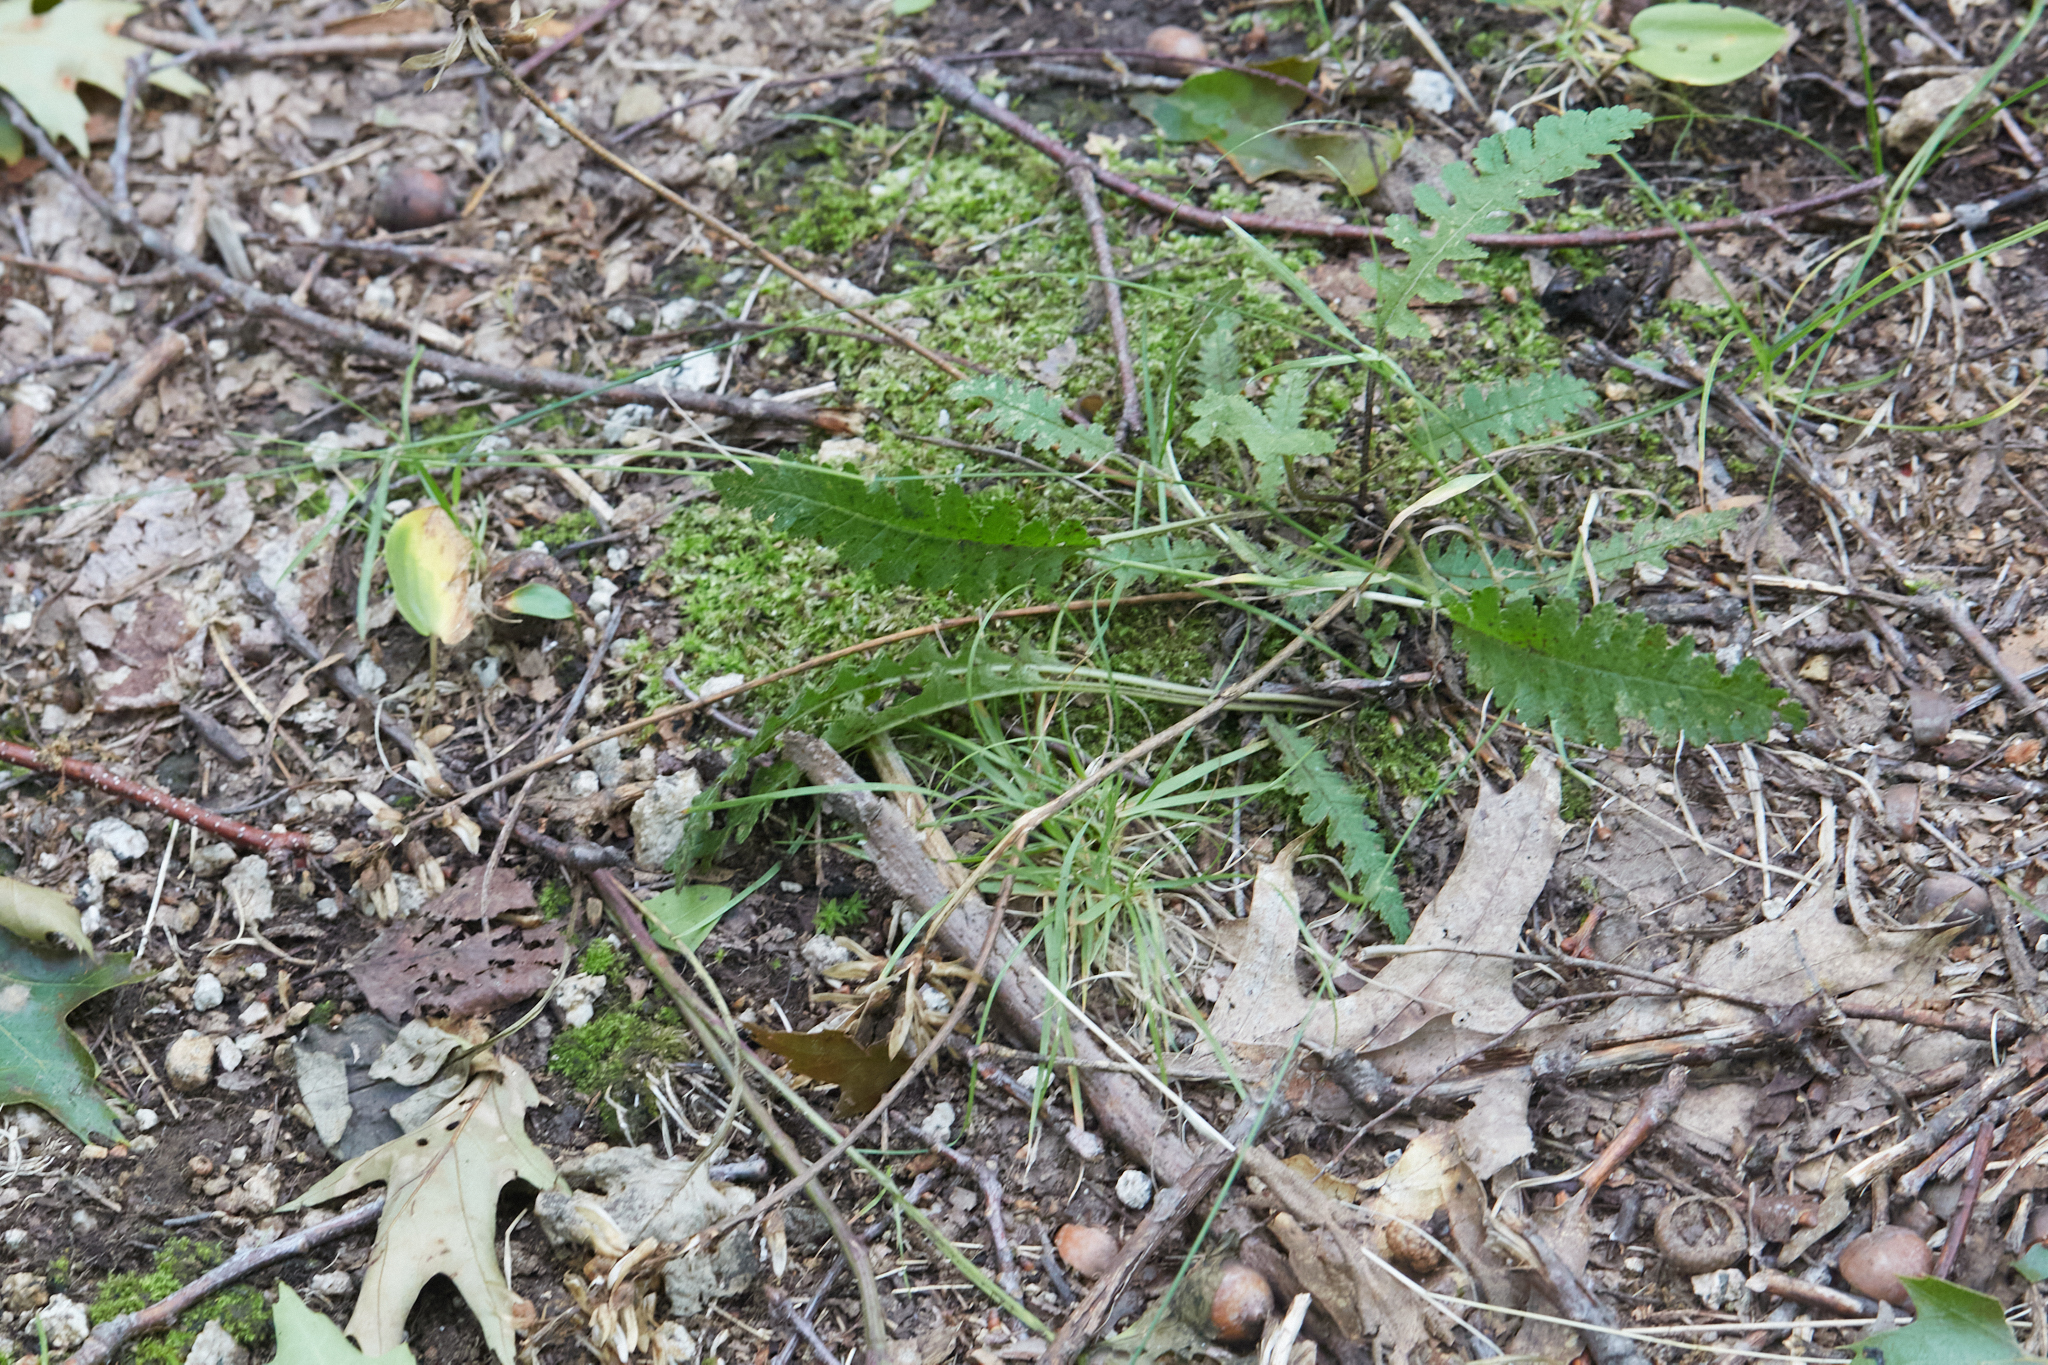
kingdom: Plantae
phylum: Tracheophyta
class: Magnoliopsida
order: Lamiales
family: Orobanchaceae
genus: Pedicularis
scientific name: Pedicularis canadensis
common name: Early lousewort
